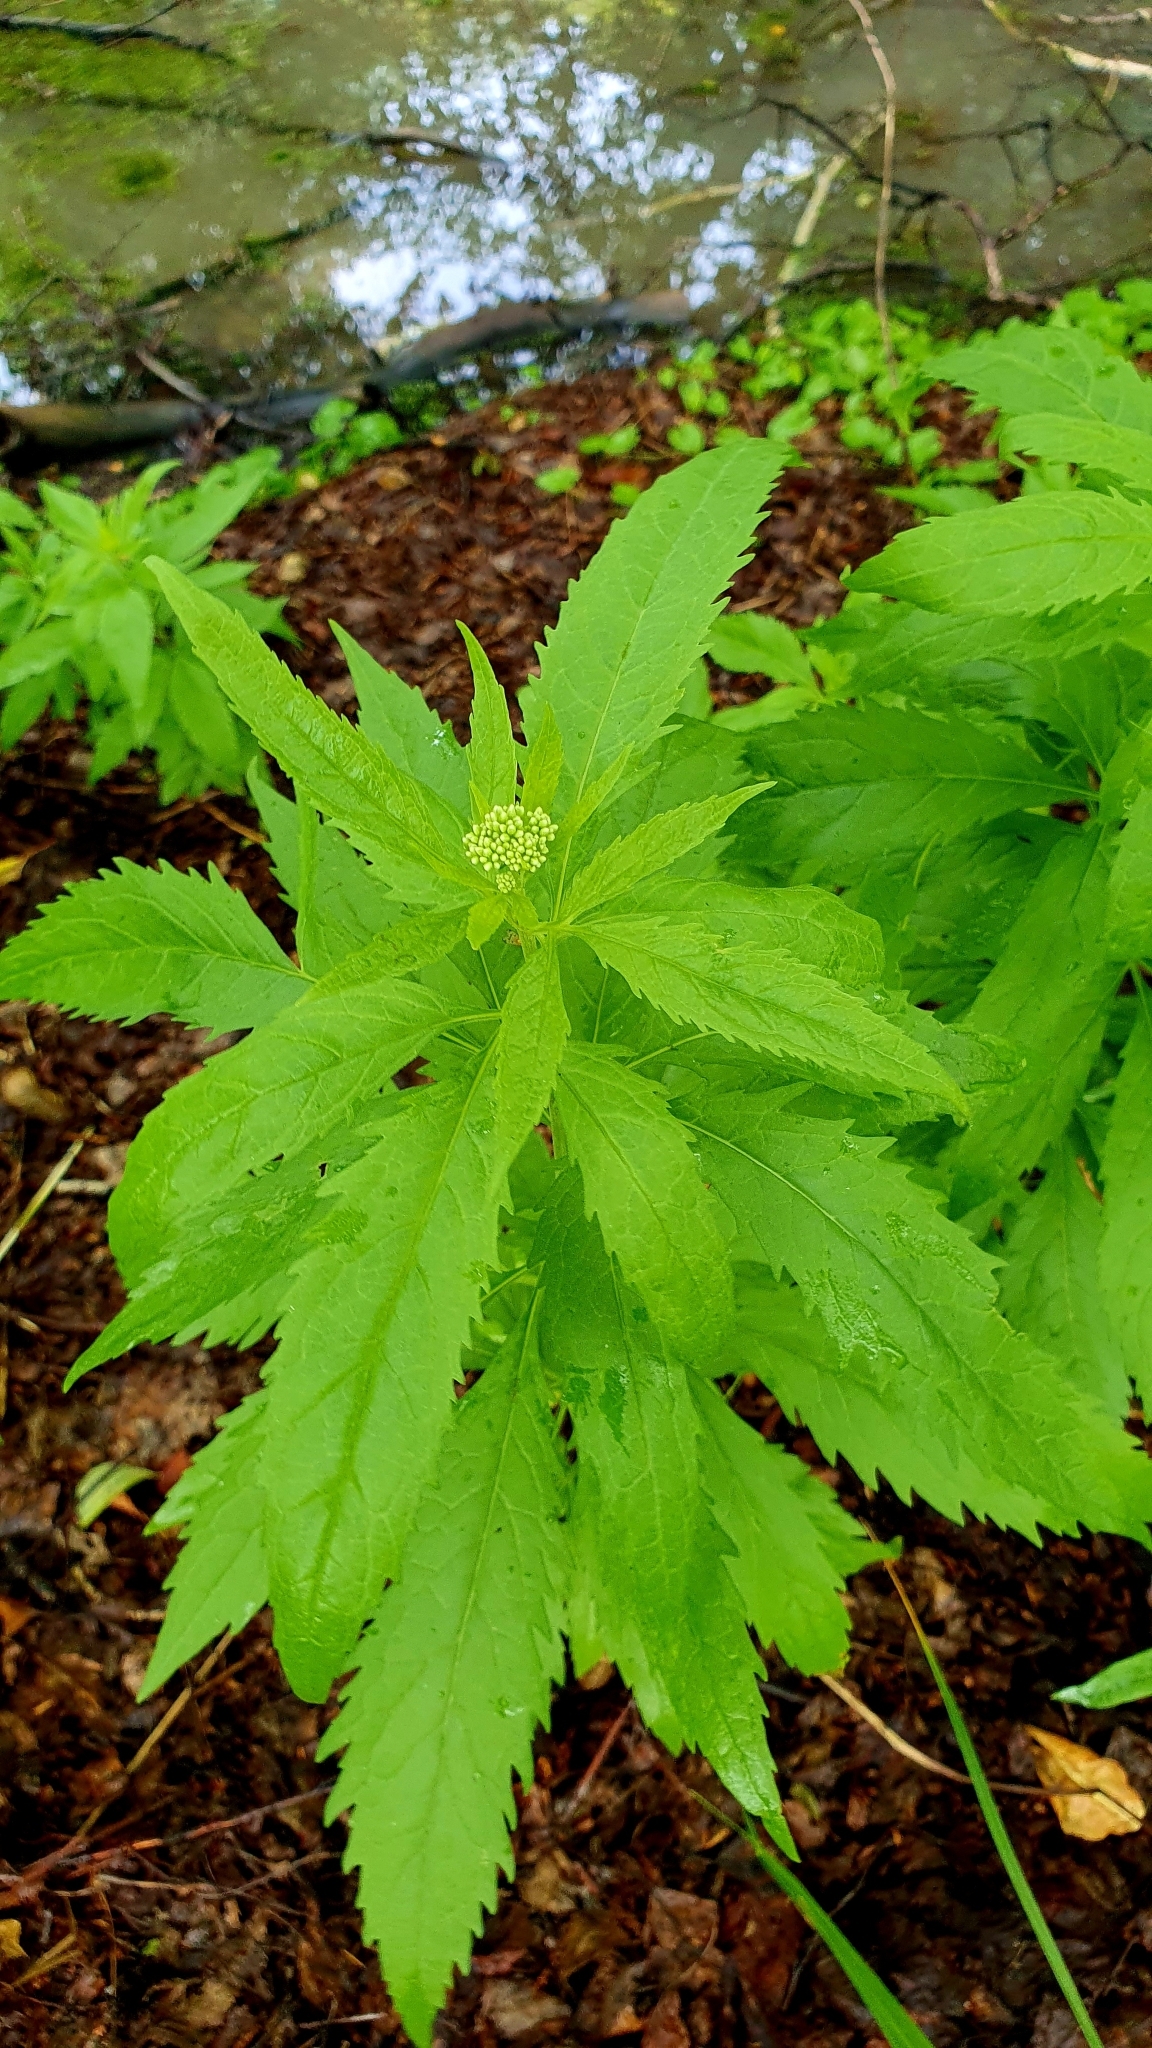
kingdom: Plantae
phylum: Tracheophyta
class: Magnoliopsida
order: Asterales
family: Asteraceae
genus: Eupatorium
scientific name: Eupatorium cannabinum
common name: Hemp-agrimony
